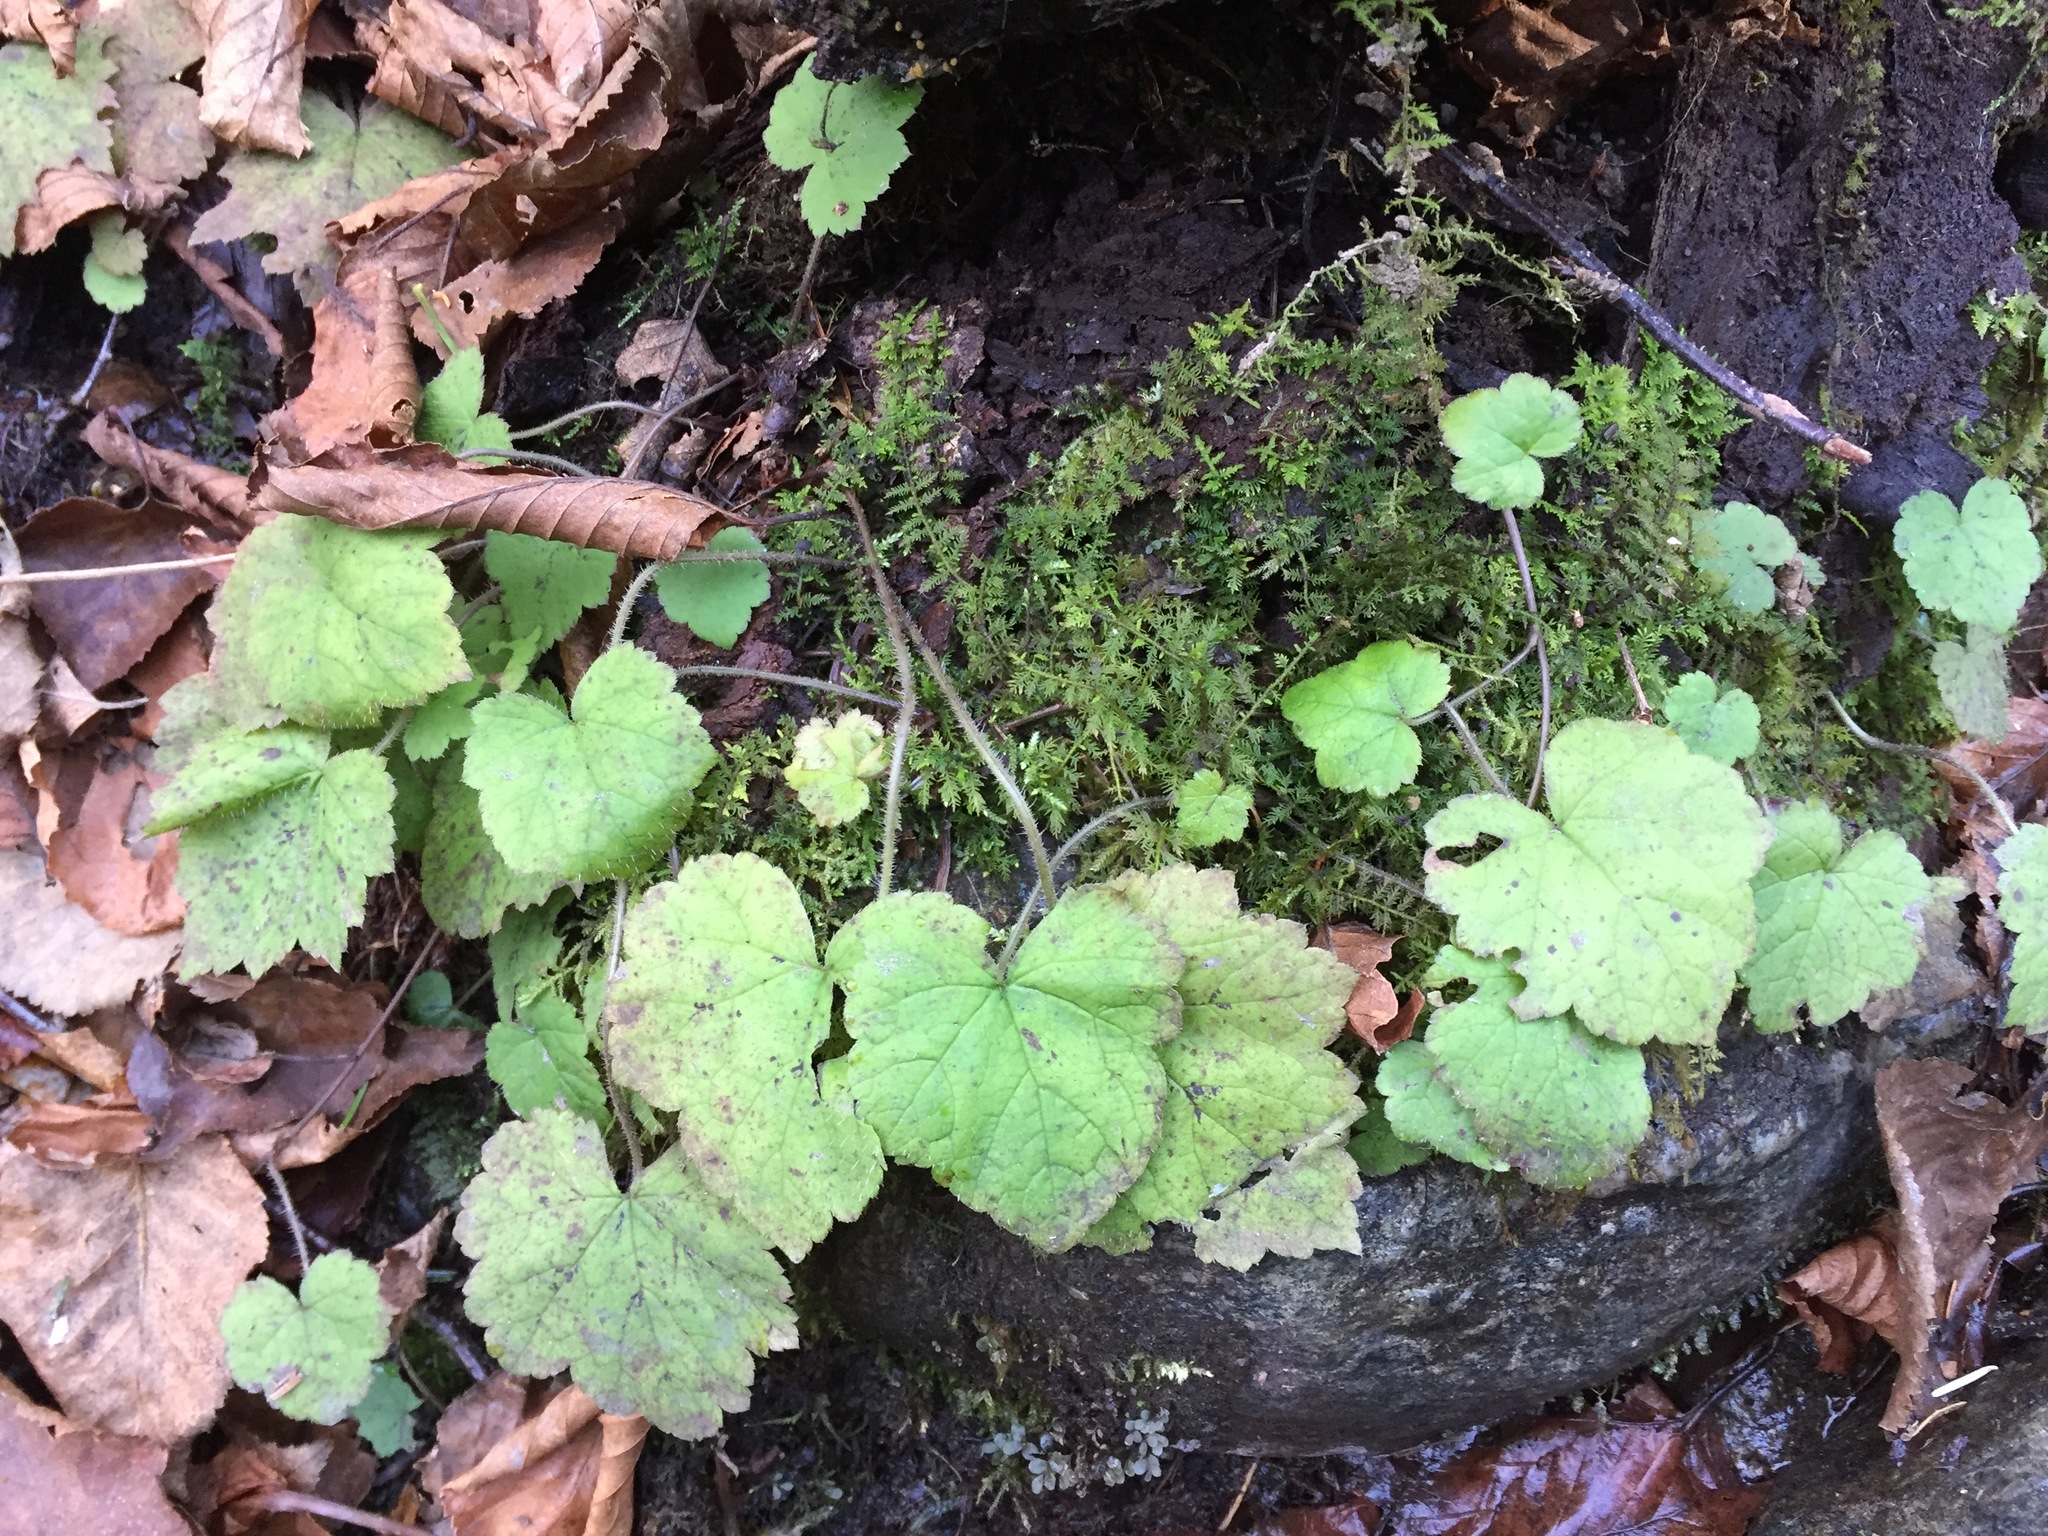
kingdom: Plantae
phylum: Tracheophyta
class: Magnoliopsida
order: Saxifragales
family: Saxifragaceae
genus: Tiarella
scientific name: Tiarella stolonifera
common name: Stoloniferous foamflower
